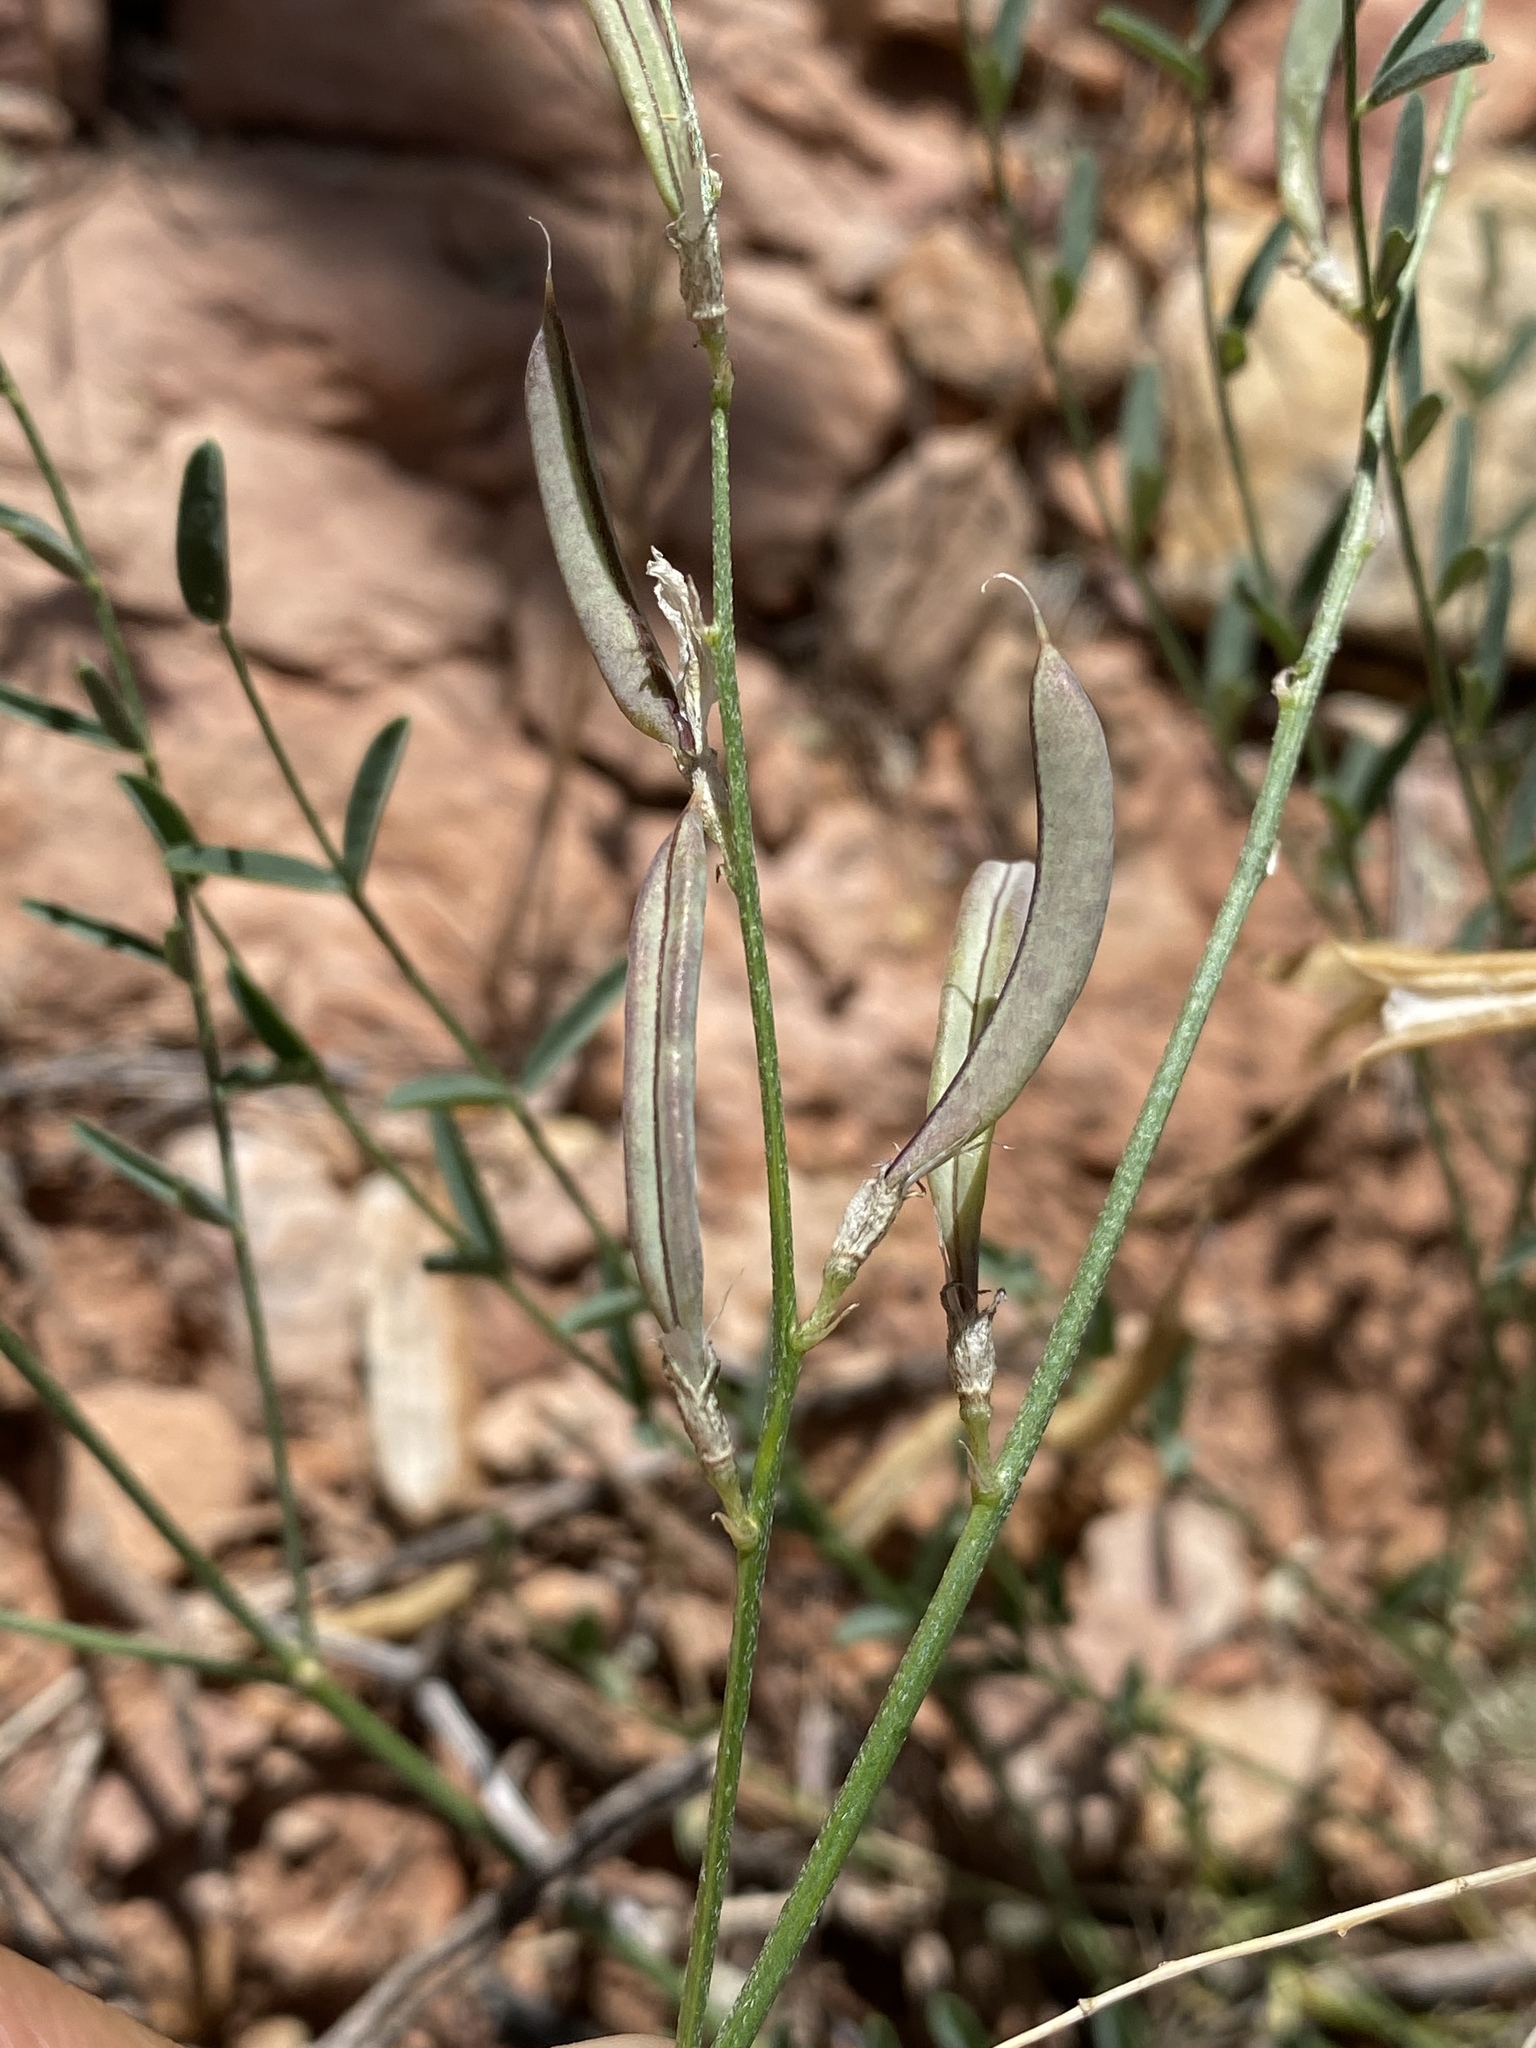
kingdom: Plantae
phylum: Tracheophyta
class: Magnoliopsida
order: Fabales
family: Fabaceae
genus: Astragalus
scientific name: Astragalus remotus
